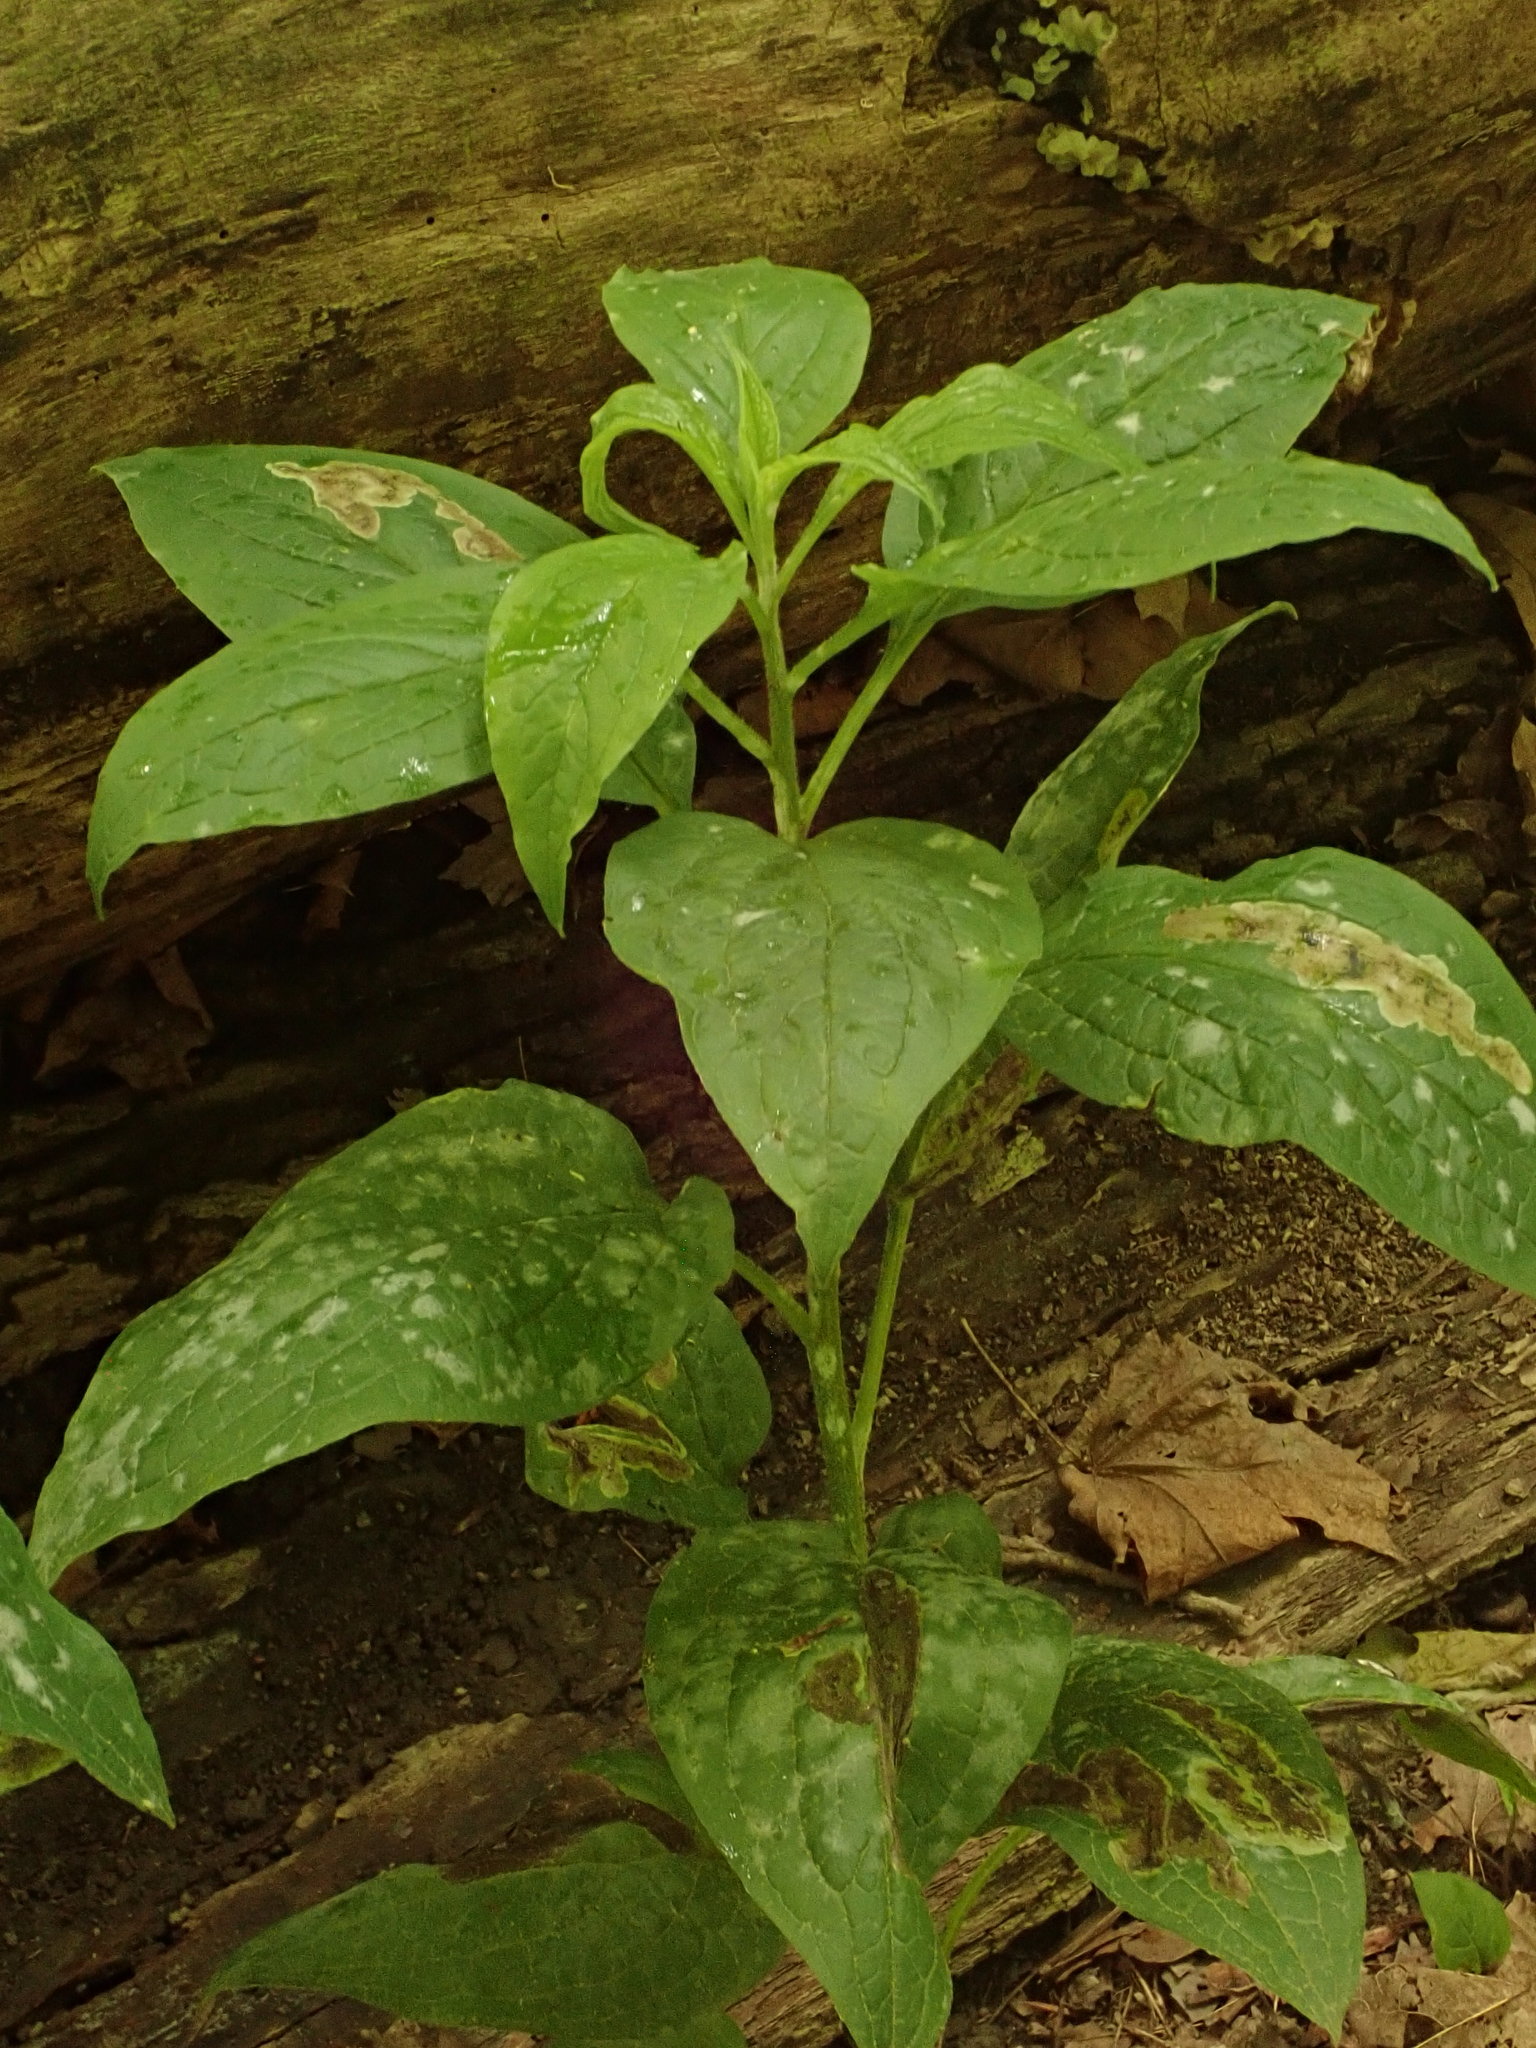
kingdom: Plantae
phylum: Tracheophyta
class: Magnoliopsida
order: Boraginales
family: Boraginaceae
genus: Hackelia
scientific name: Hackelia virginiana
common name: Beggar's-lice
